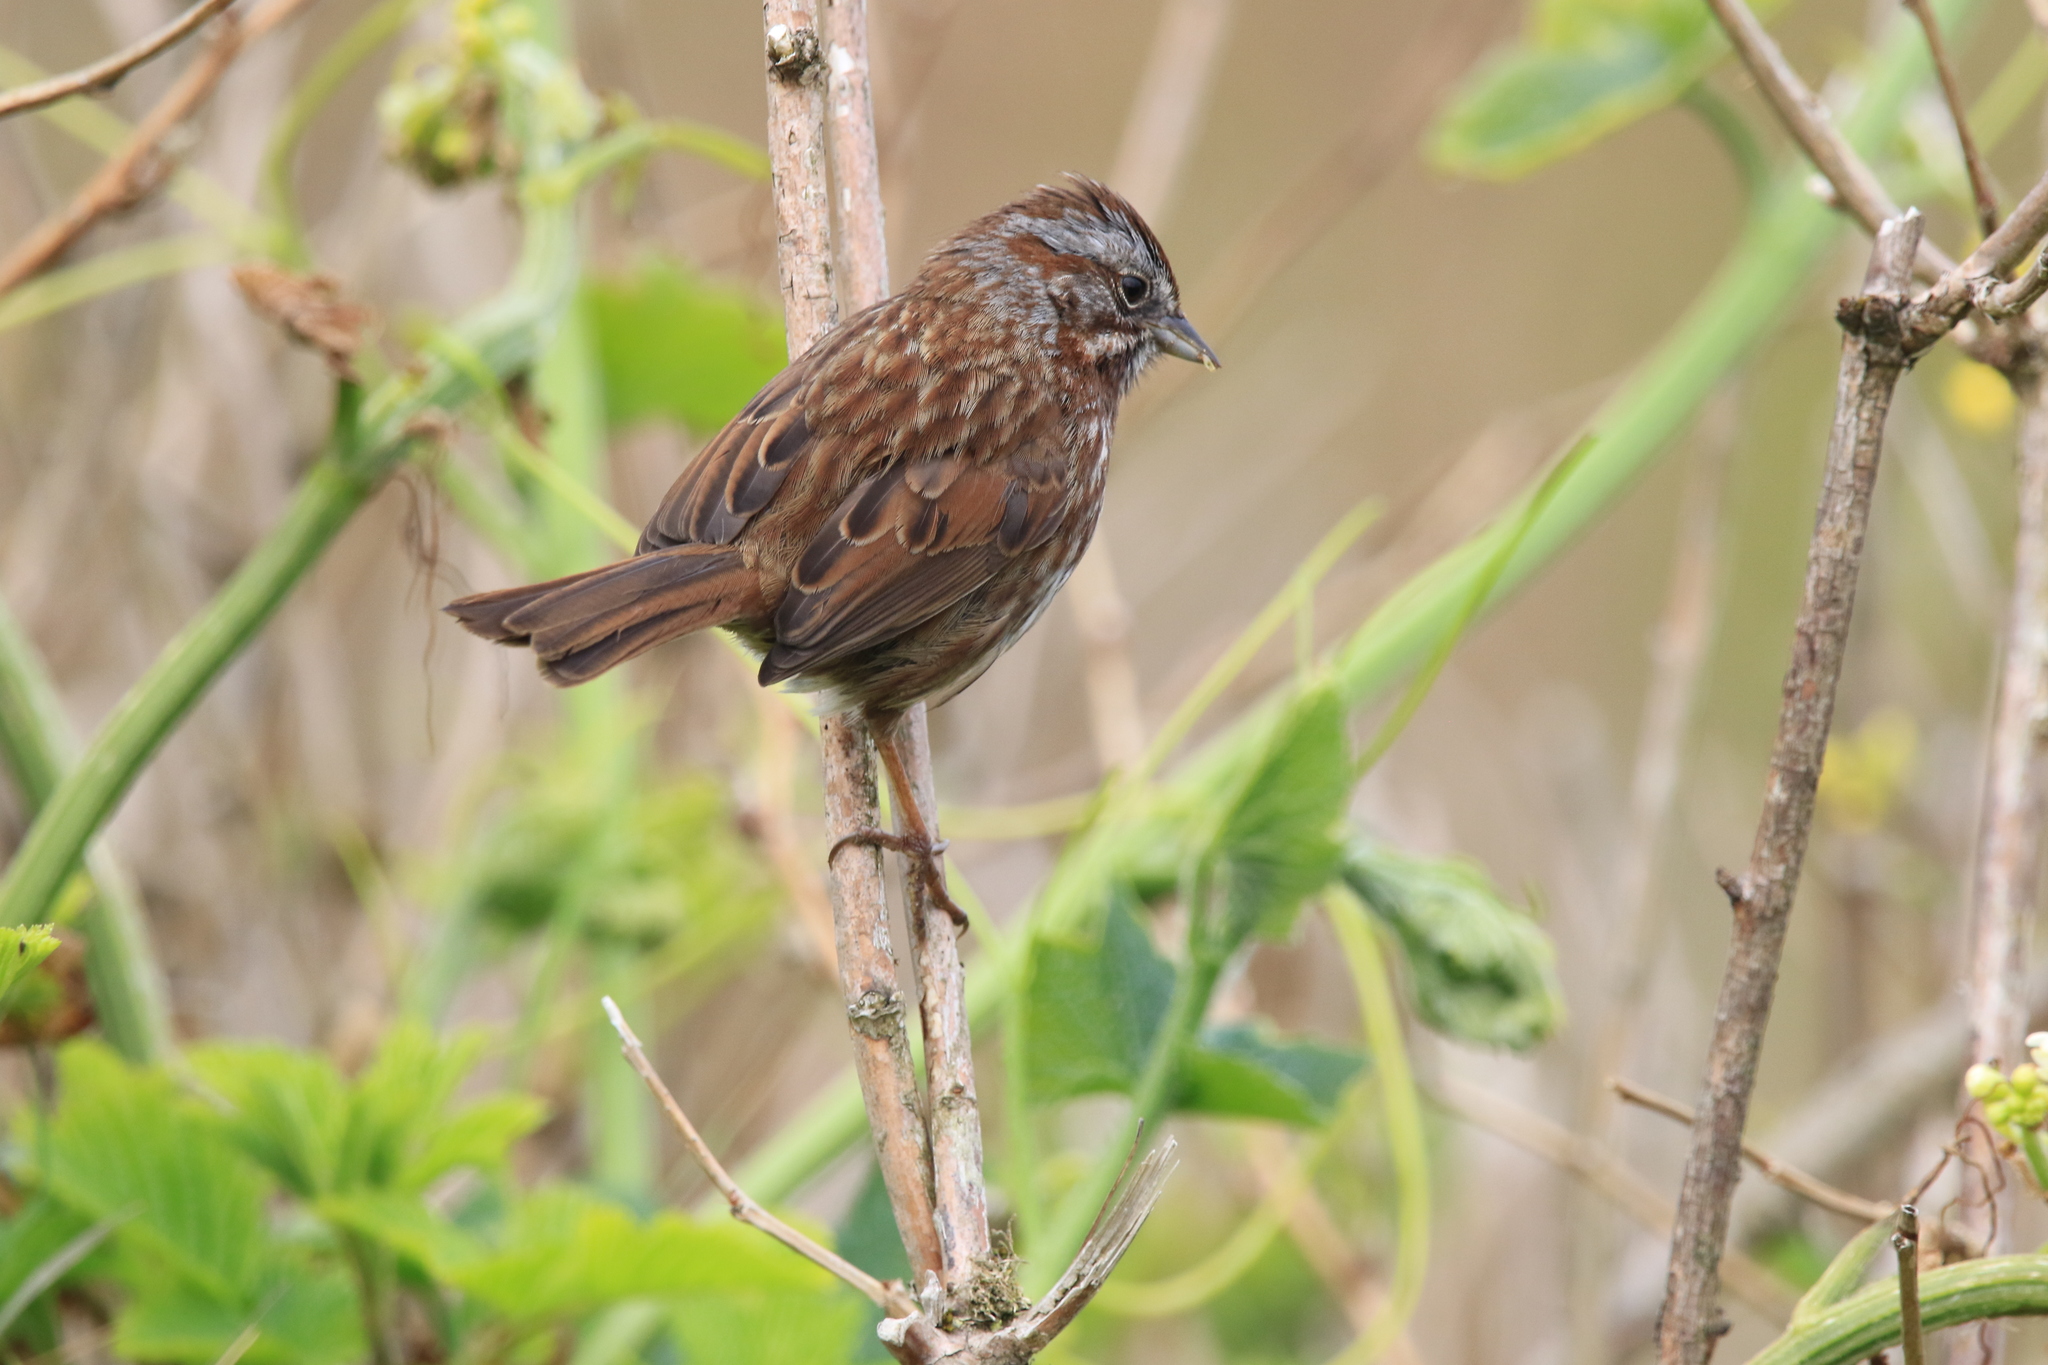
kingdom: Animalia
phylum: Chordata
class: Aves
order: Passeriformes
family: Passerellidae
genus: Melospiza
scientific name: Melospiza melodia
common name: Song sparrow
